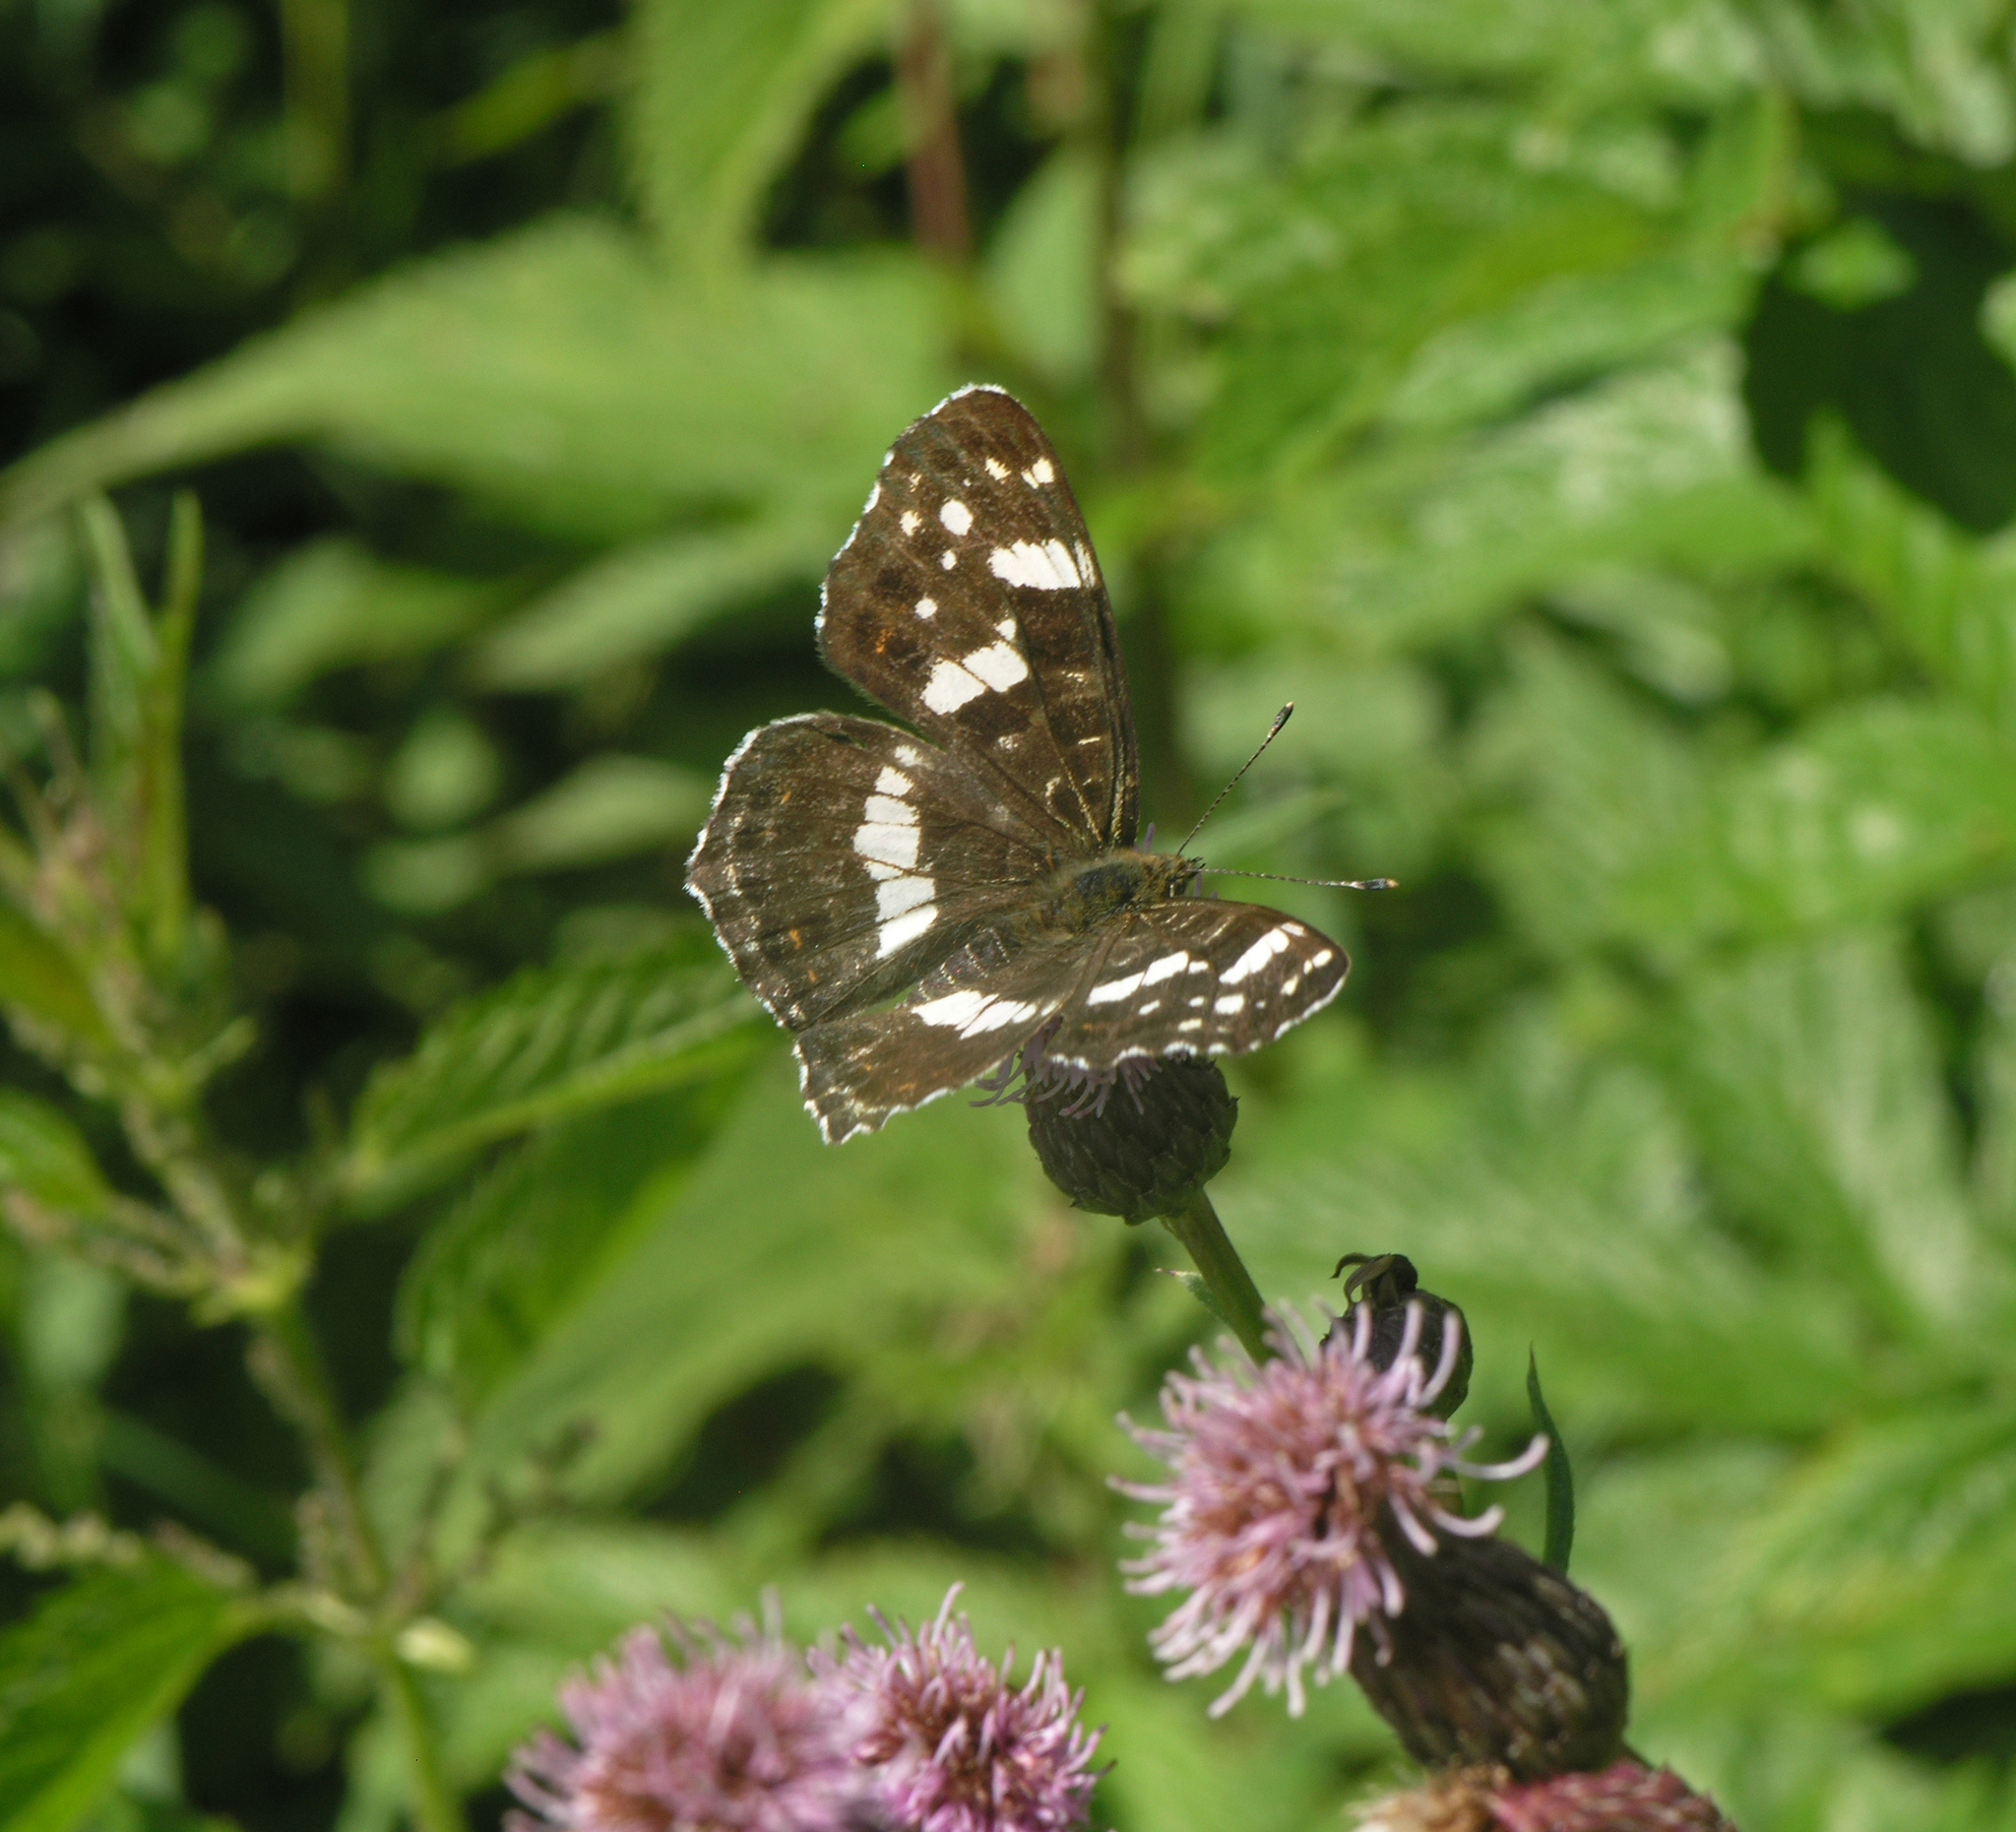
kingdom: Animalia
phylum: Arthropoda
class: Insecta
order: Lepidoptera
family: Nymphalidae
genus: Araschnia
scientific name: Araschnia levana
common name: Map butterfly
